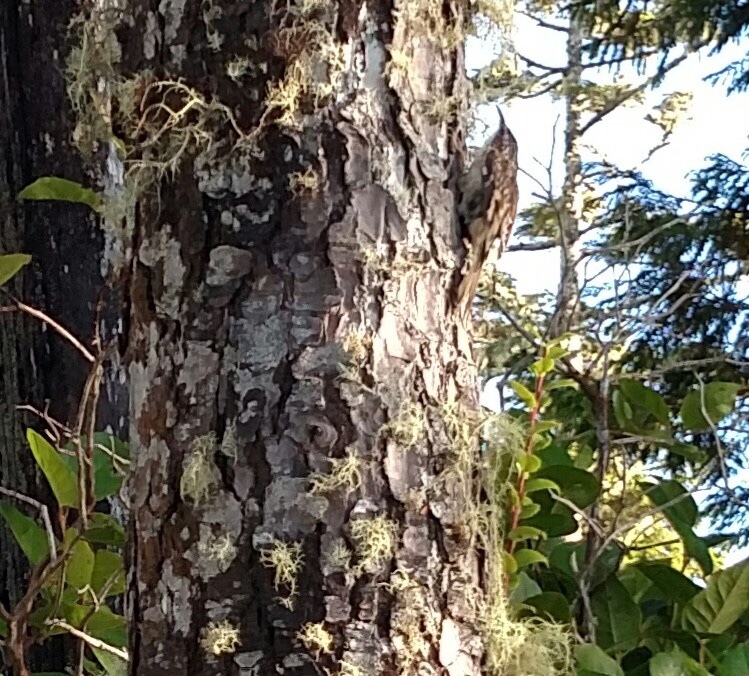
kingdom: Animalia
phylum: Chordata
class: Aves
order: Passeriformes
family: Certhiidae
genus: Certhia
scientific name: Certhia americana
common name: Brown creeper
